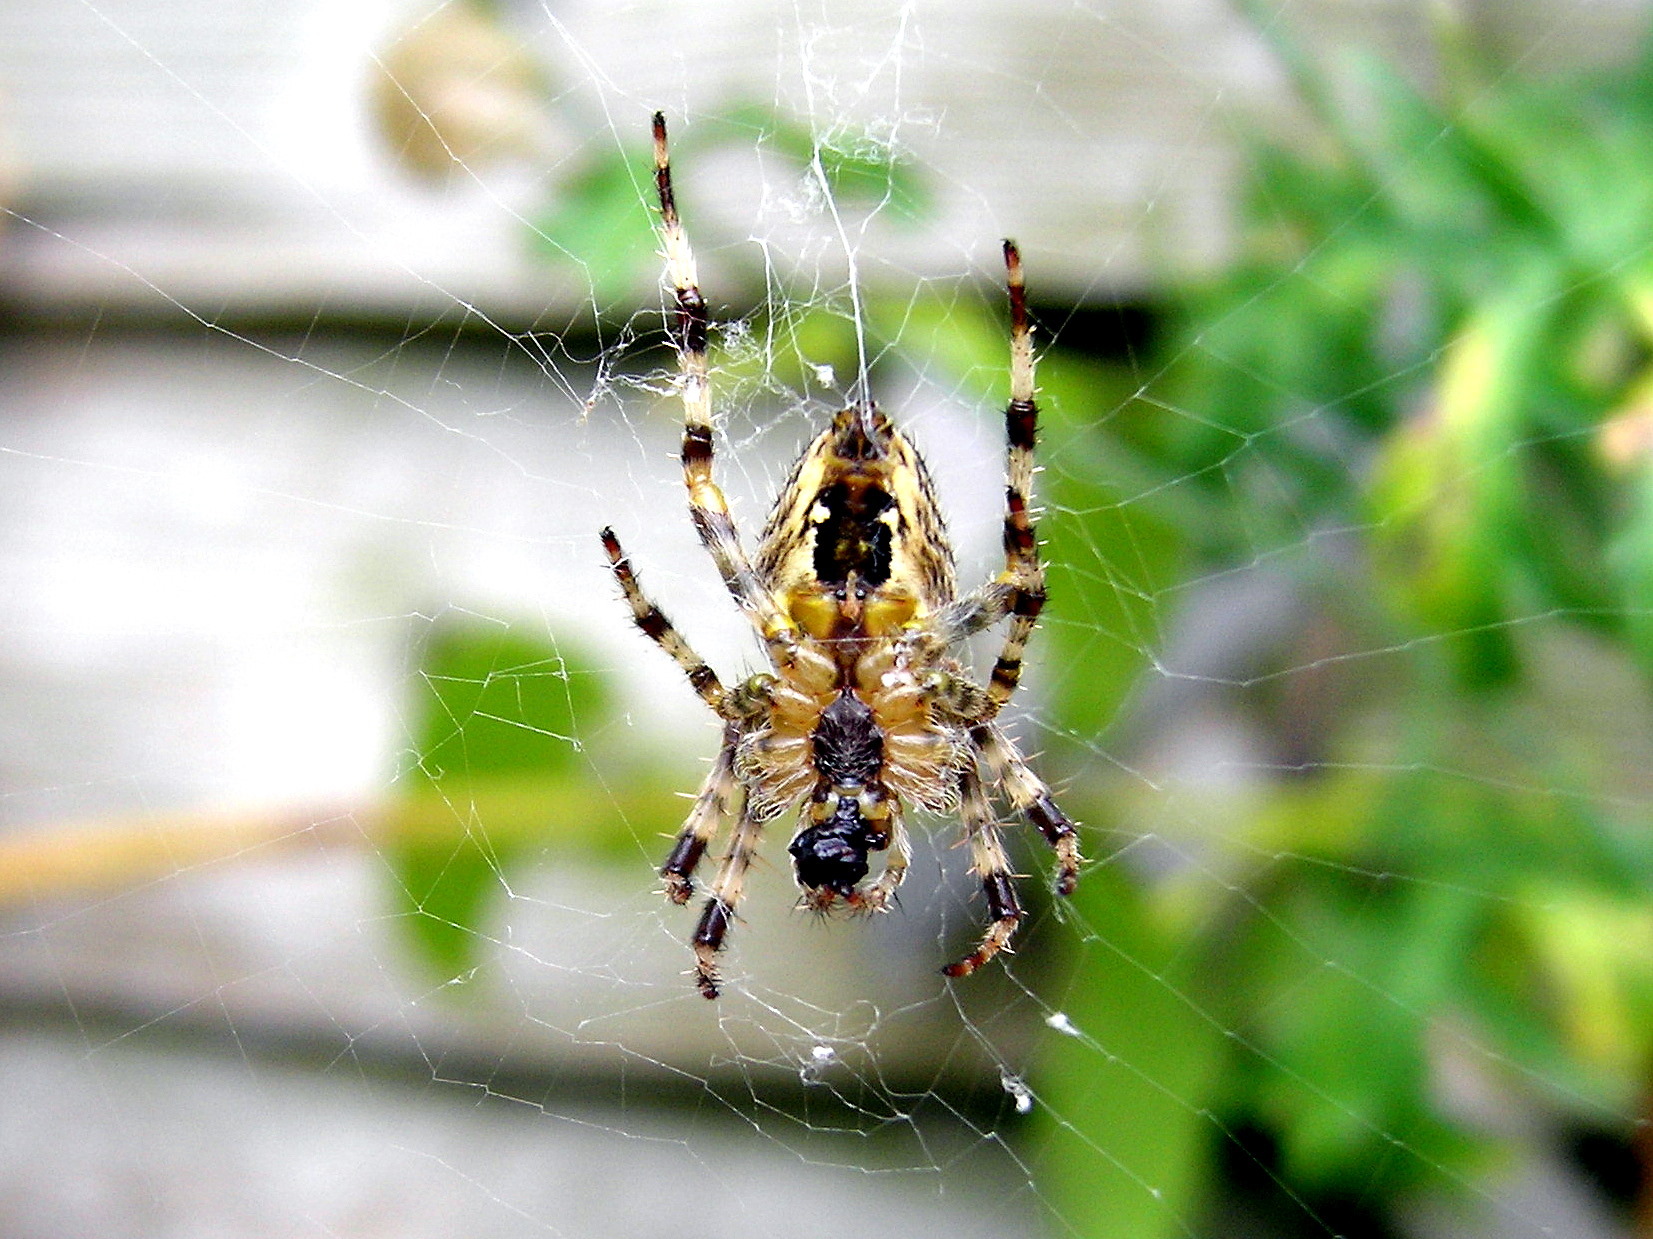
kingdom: Animalia
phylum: Arthropoda
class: Arachnida
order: Araneae
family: Araneidae
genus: Araneus
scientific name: Araneus diadematus
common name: Cross orbweaver
